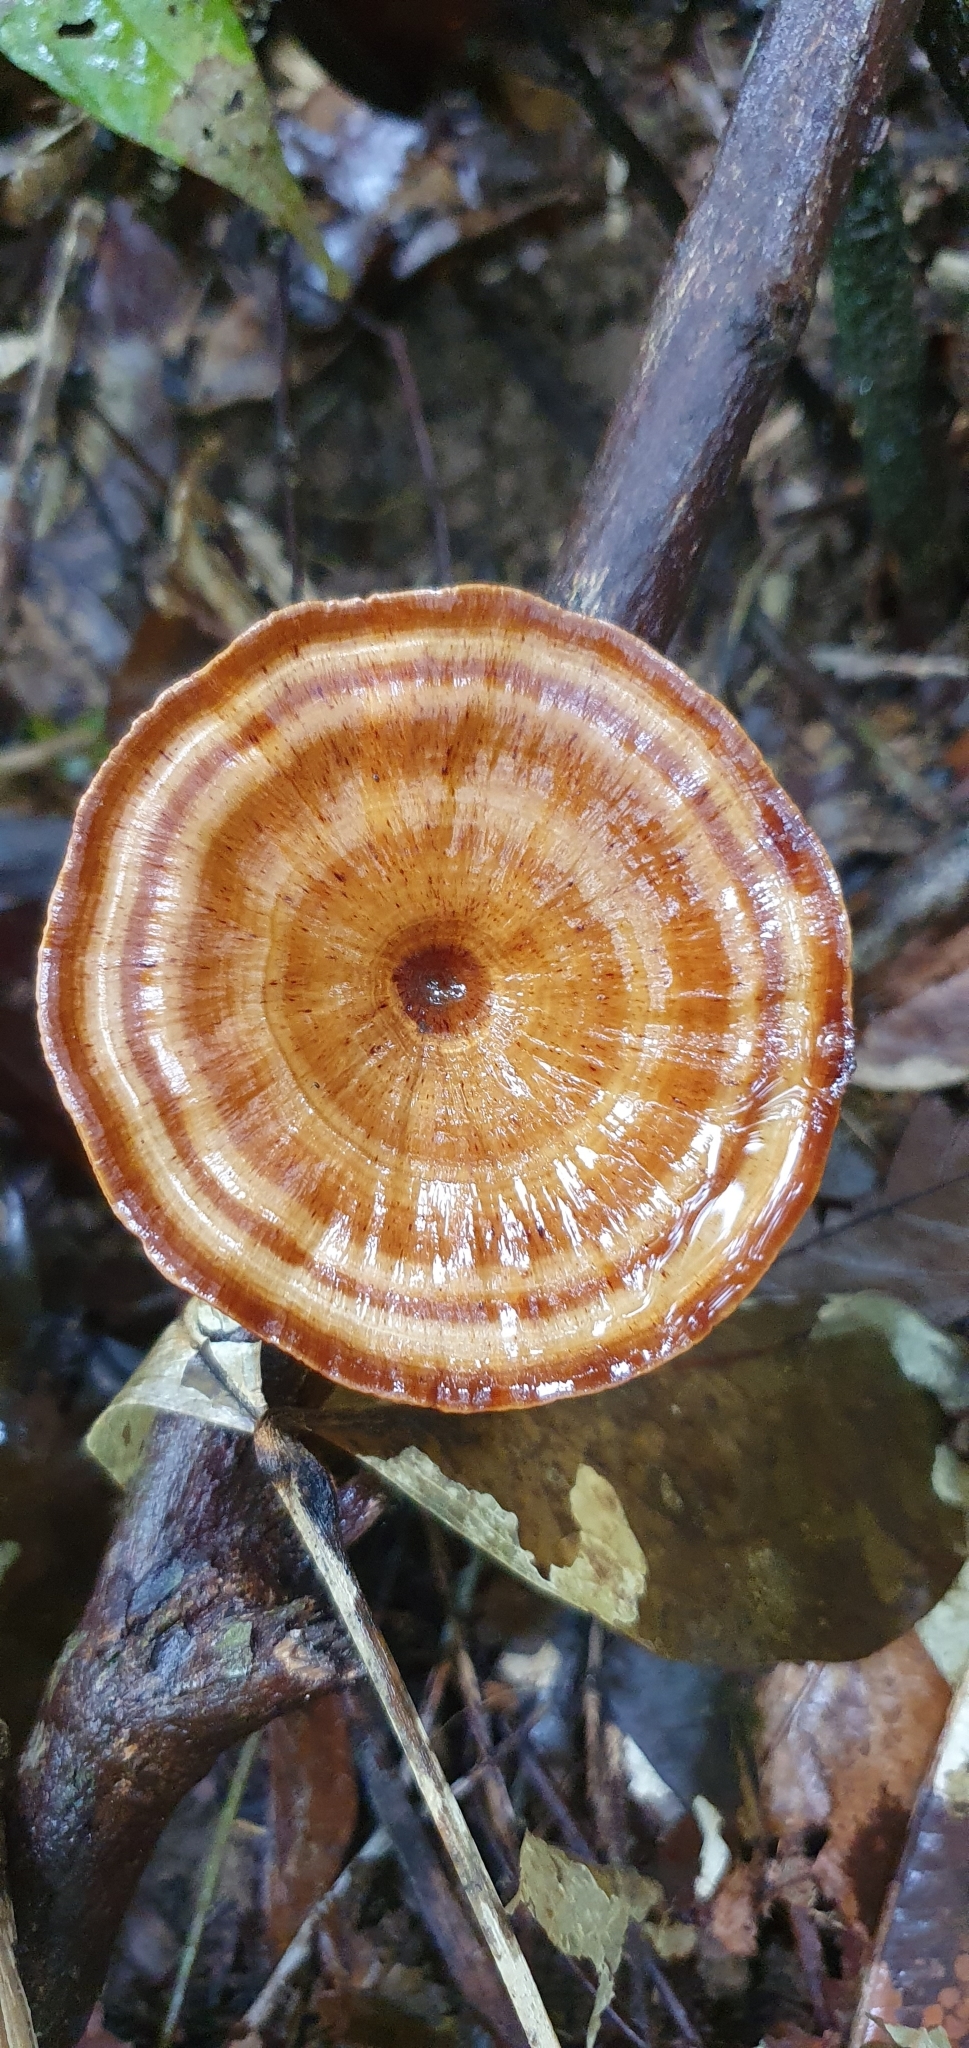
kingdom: Fungi
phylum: Basidiomycota
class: Agaricomycetes
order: Polyporales
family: Polyporaceae
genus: Microporus
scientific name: Microporus xanthopus
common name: Yellow-stemmed micropore
